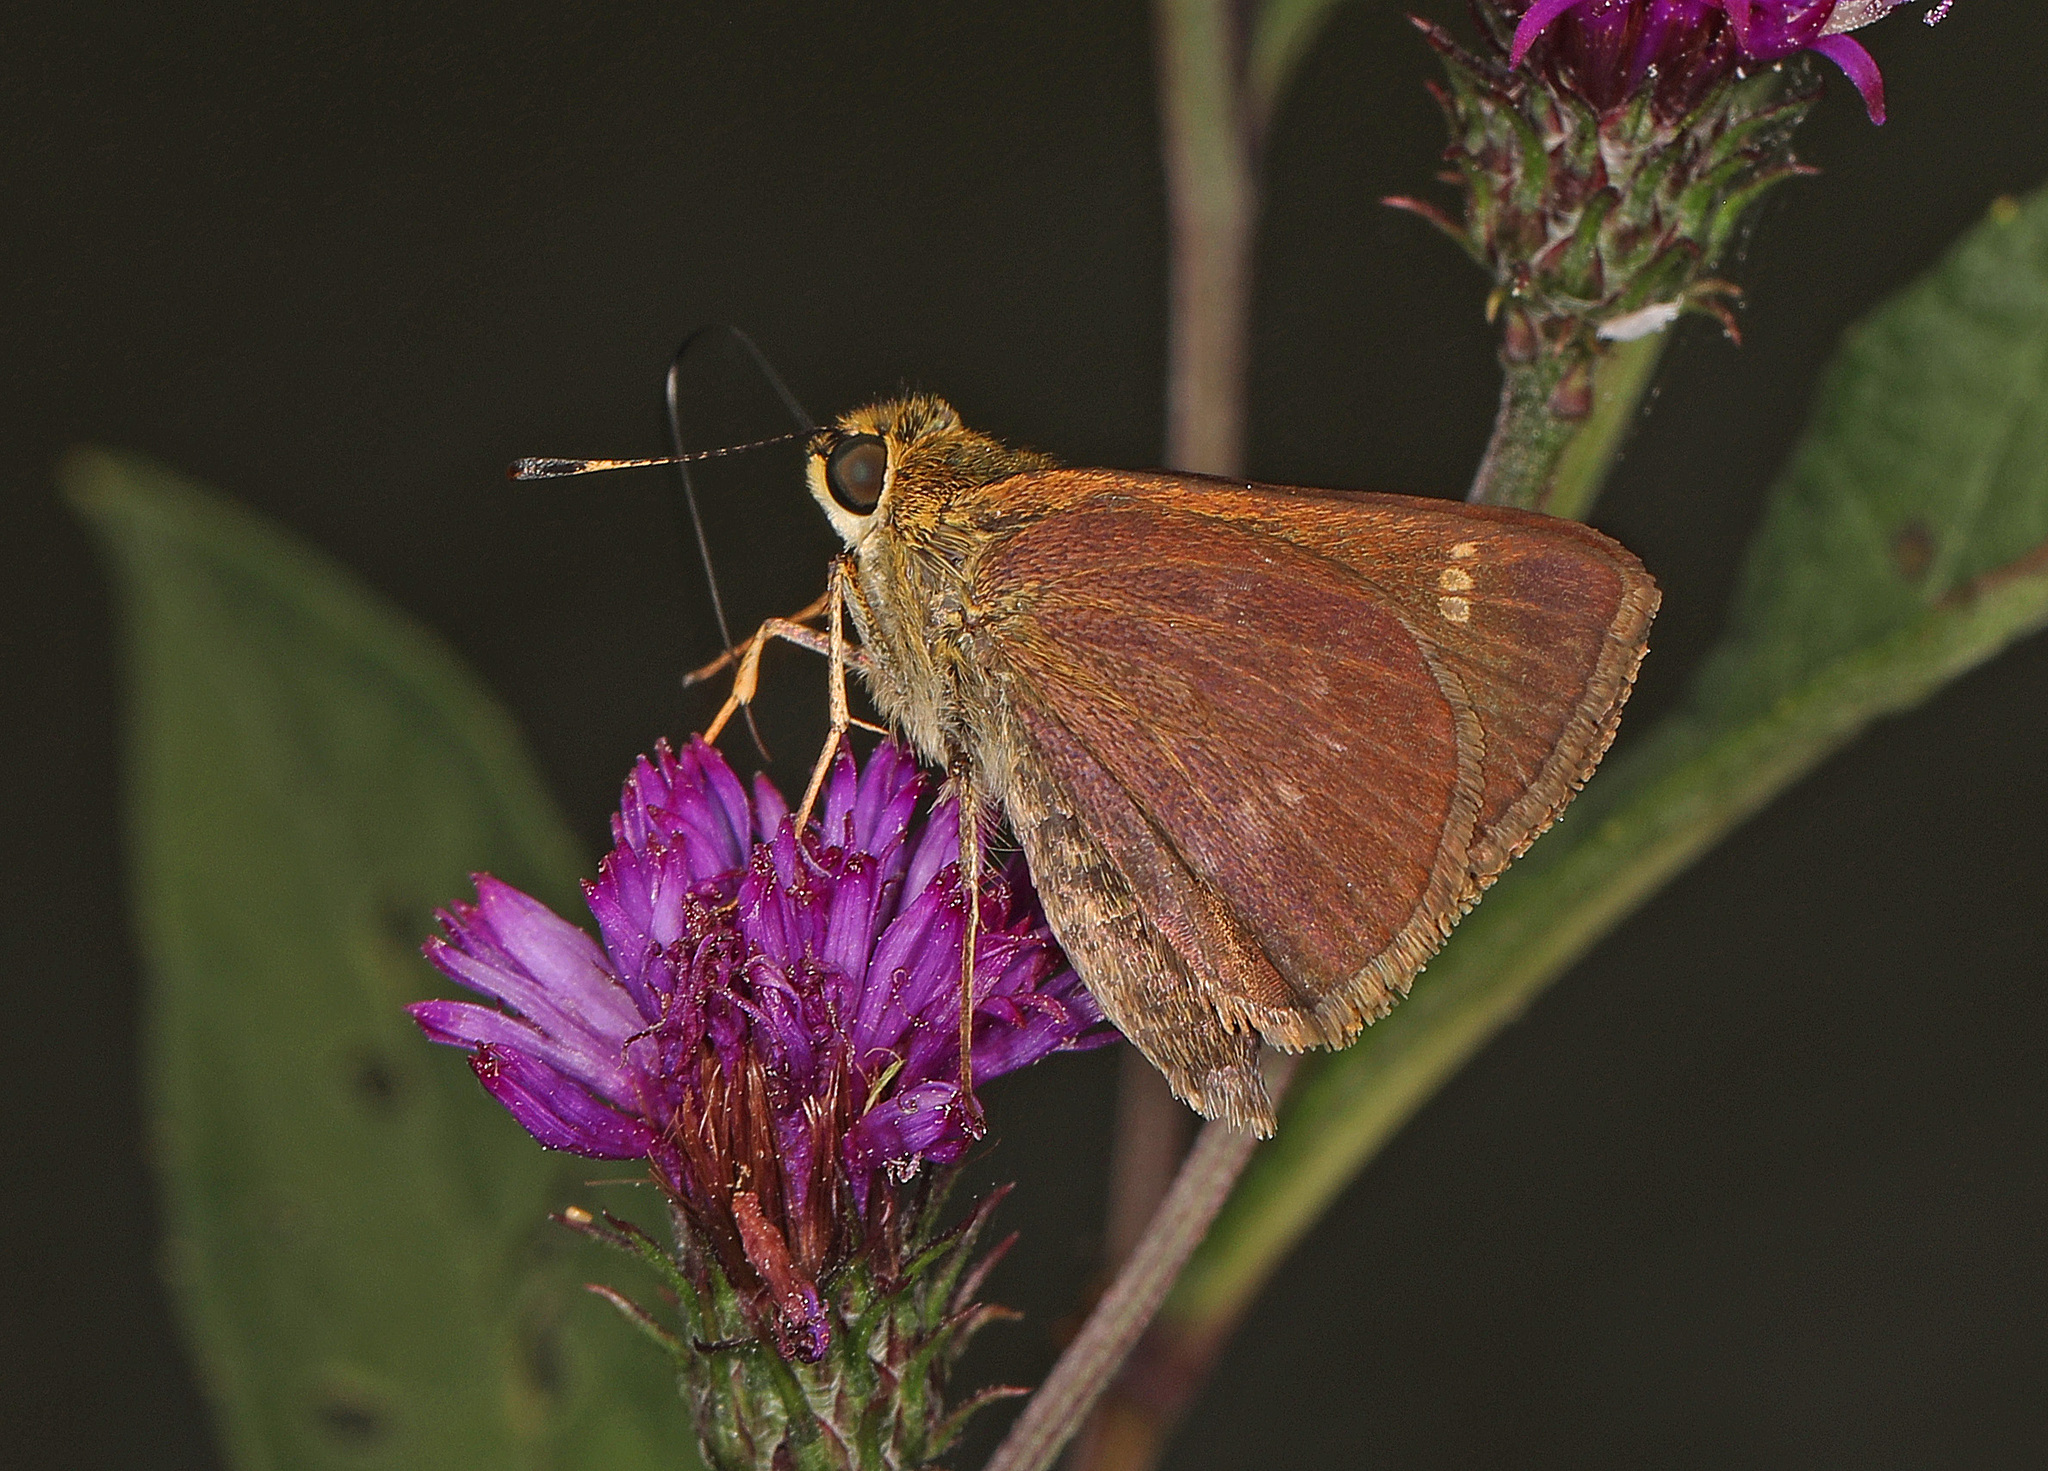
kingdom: Animalia
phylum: Arthropoda
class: Insecta
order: Lepidoptera
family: Hesperiidae
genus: Vernia
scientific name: Vernia verna
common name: Little glassywing
